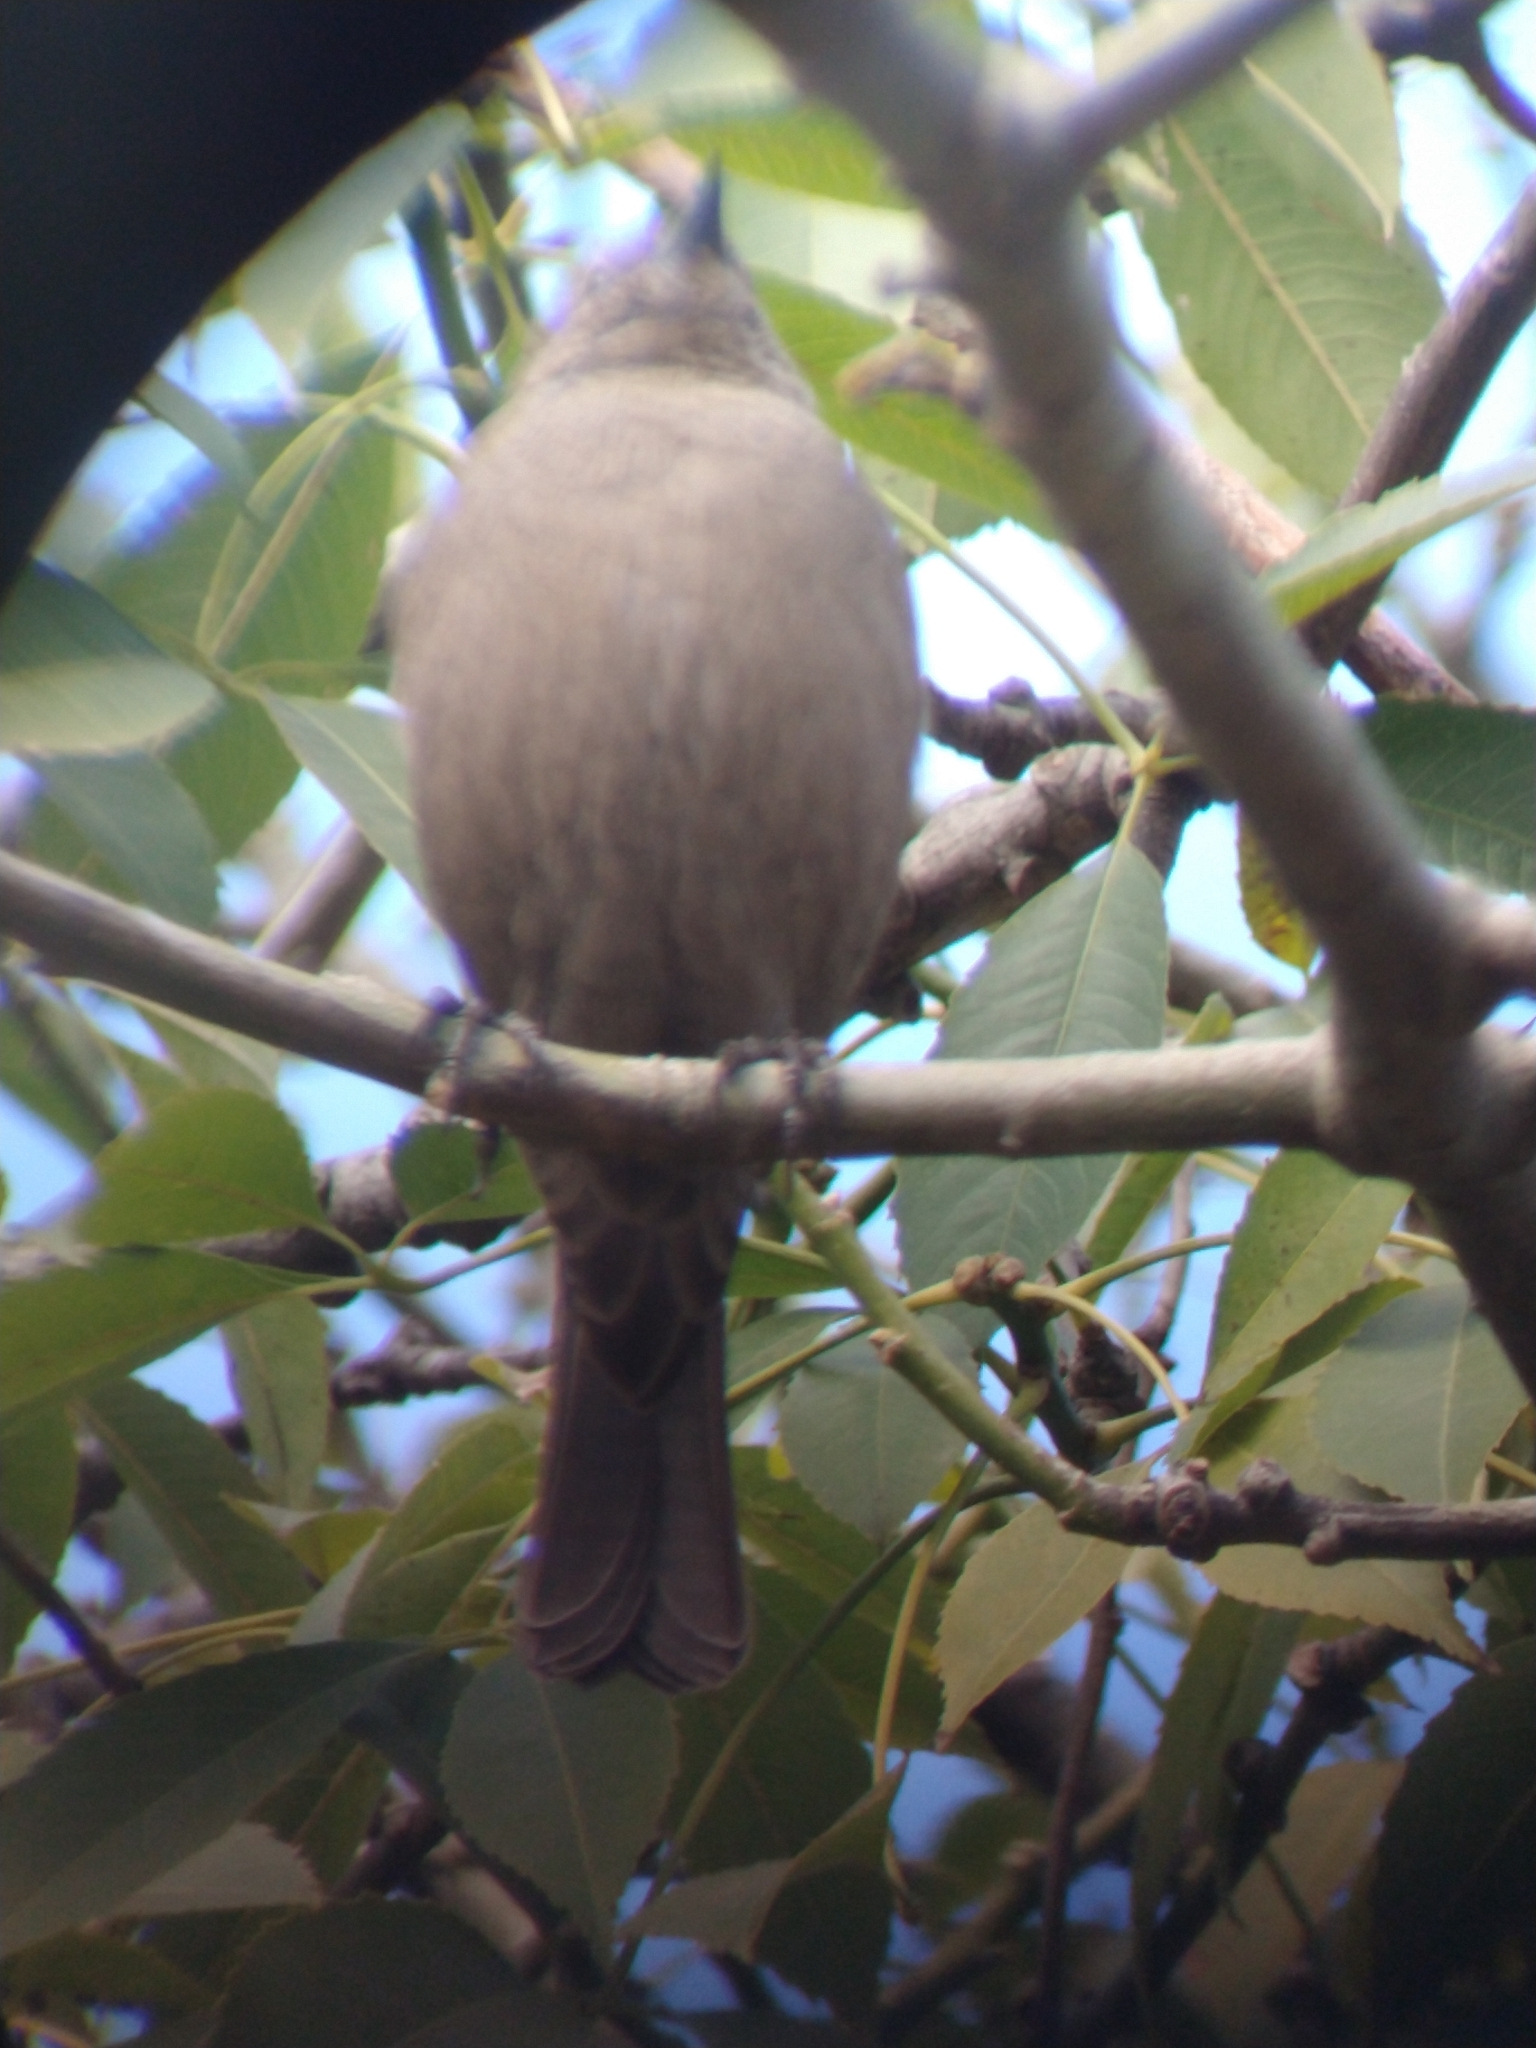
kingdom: Animalia
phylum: Chordata
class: Aves
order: Passeriformes
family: Icteridae
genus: Molothrus
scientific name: Molothrus bonariensis
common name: Shiny cowbird
